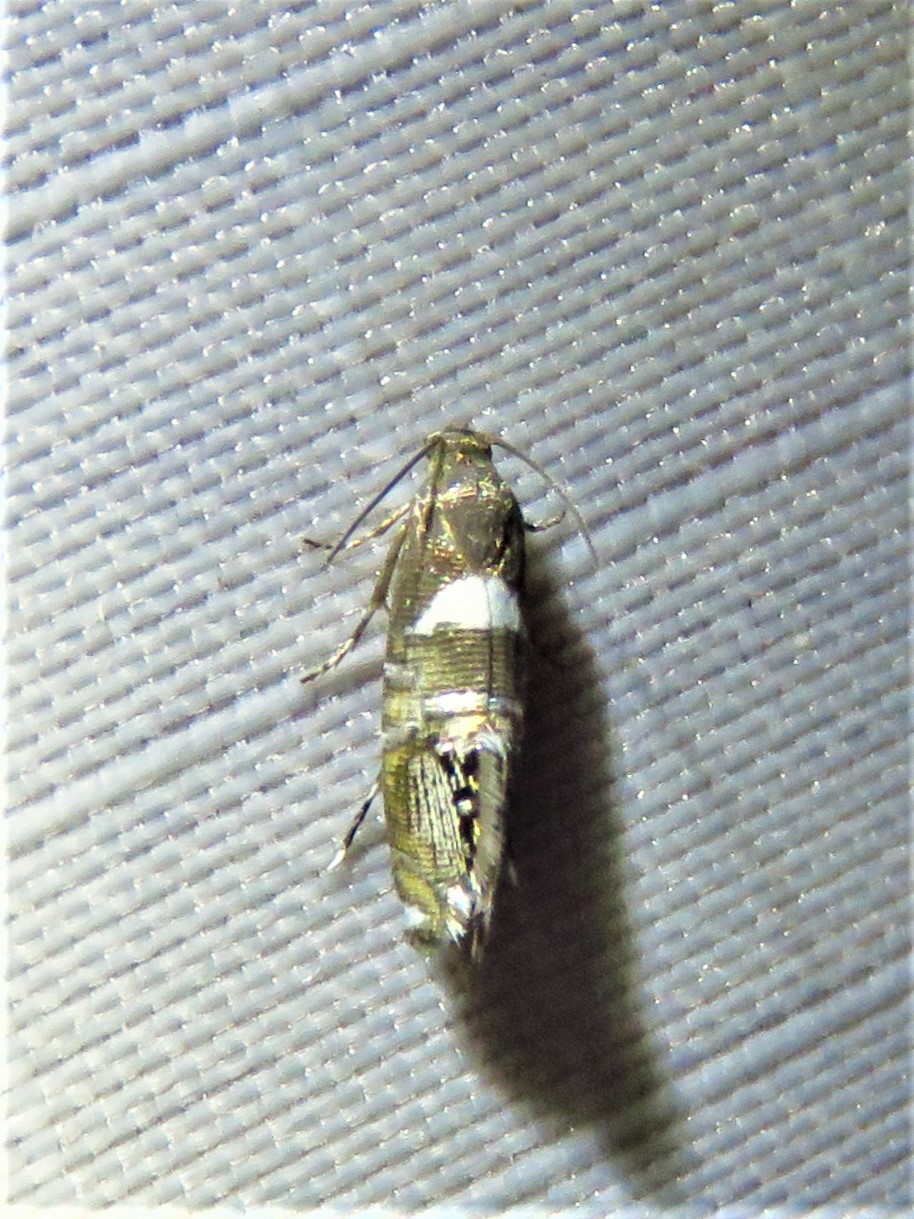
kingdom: Animalia
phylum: Arthropoda
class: Insecta
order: Lepidoptera
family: Glyphipterigidae
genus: Glyphipterix
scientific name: Glyphipterix circumscriptella
